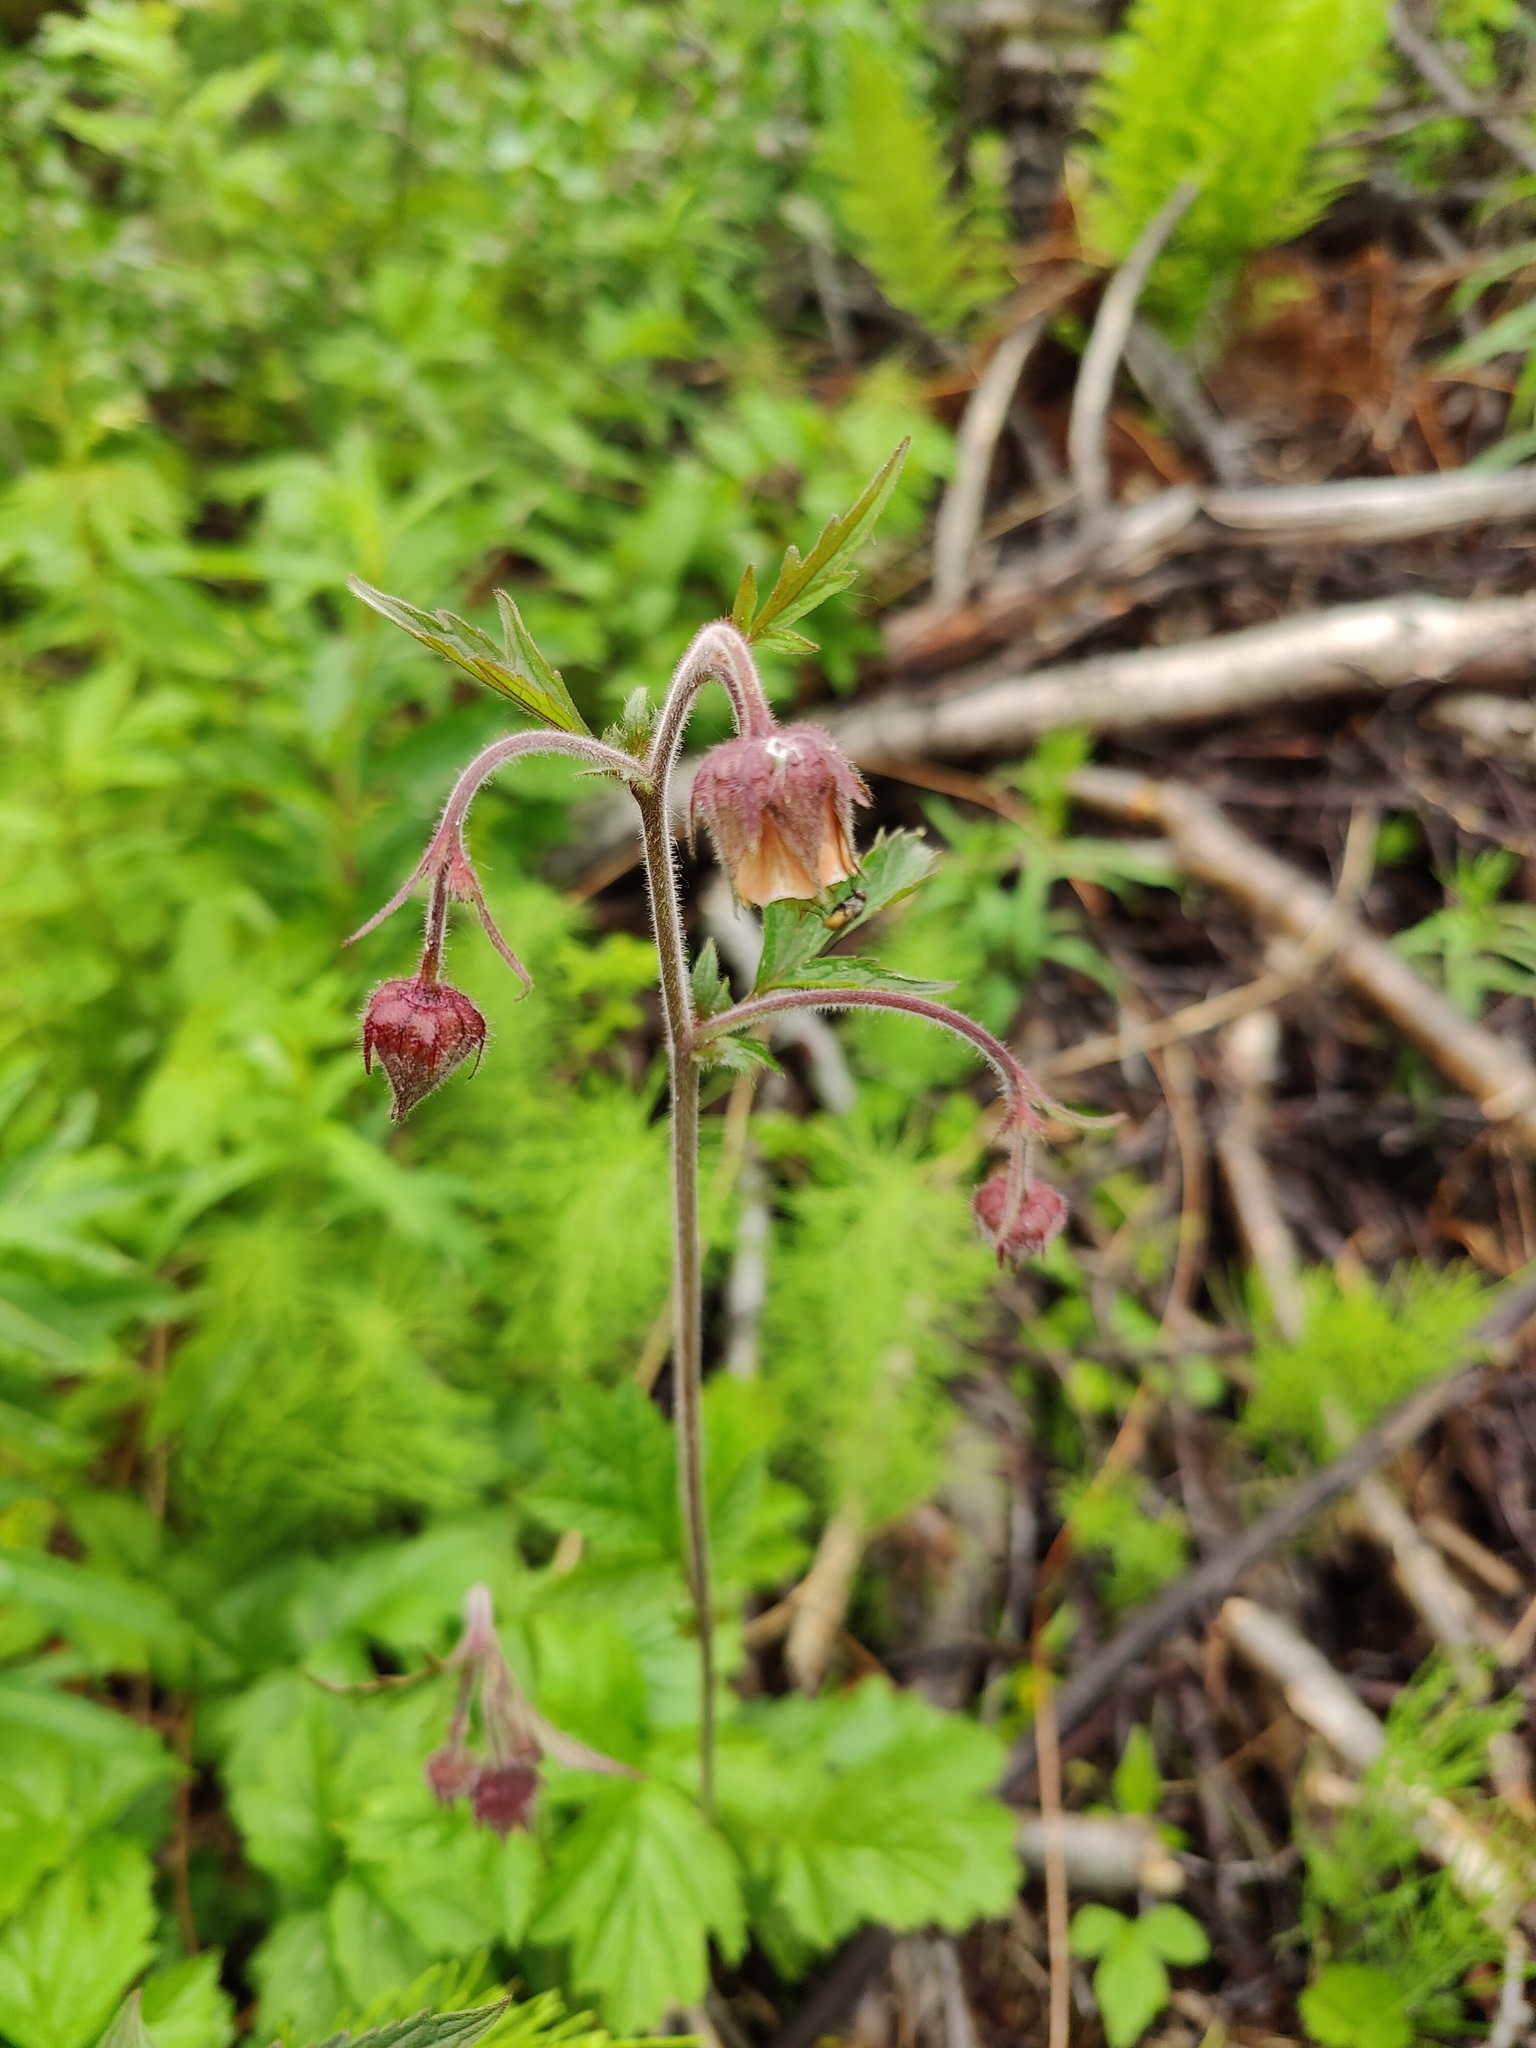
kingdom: Plantae
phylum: Tracheophyta
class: Magnoliopsida
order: Rosales
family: Rosaceae
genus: Geum
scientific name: Geum rivale
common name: Water avens
